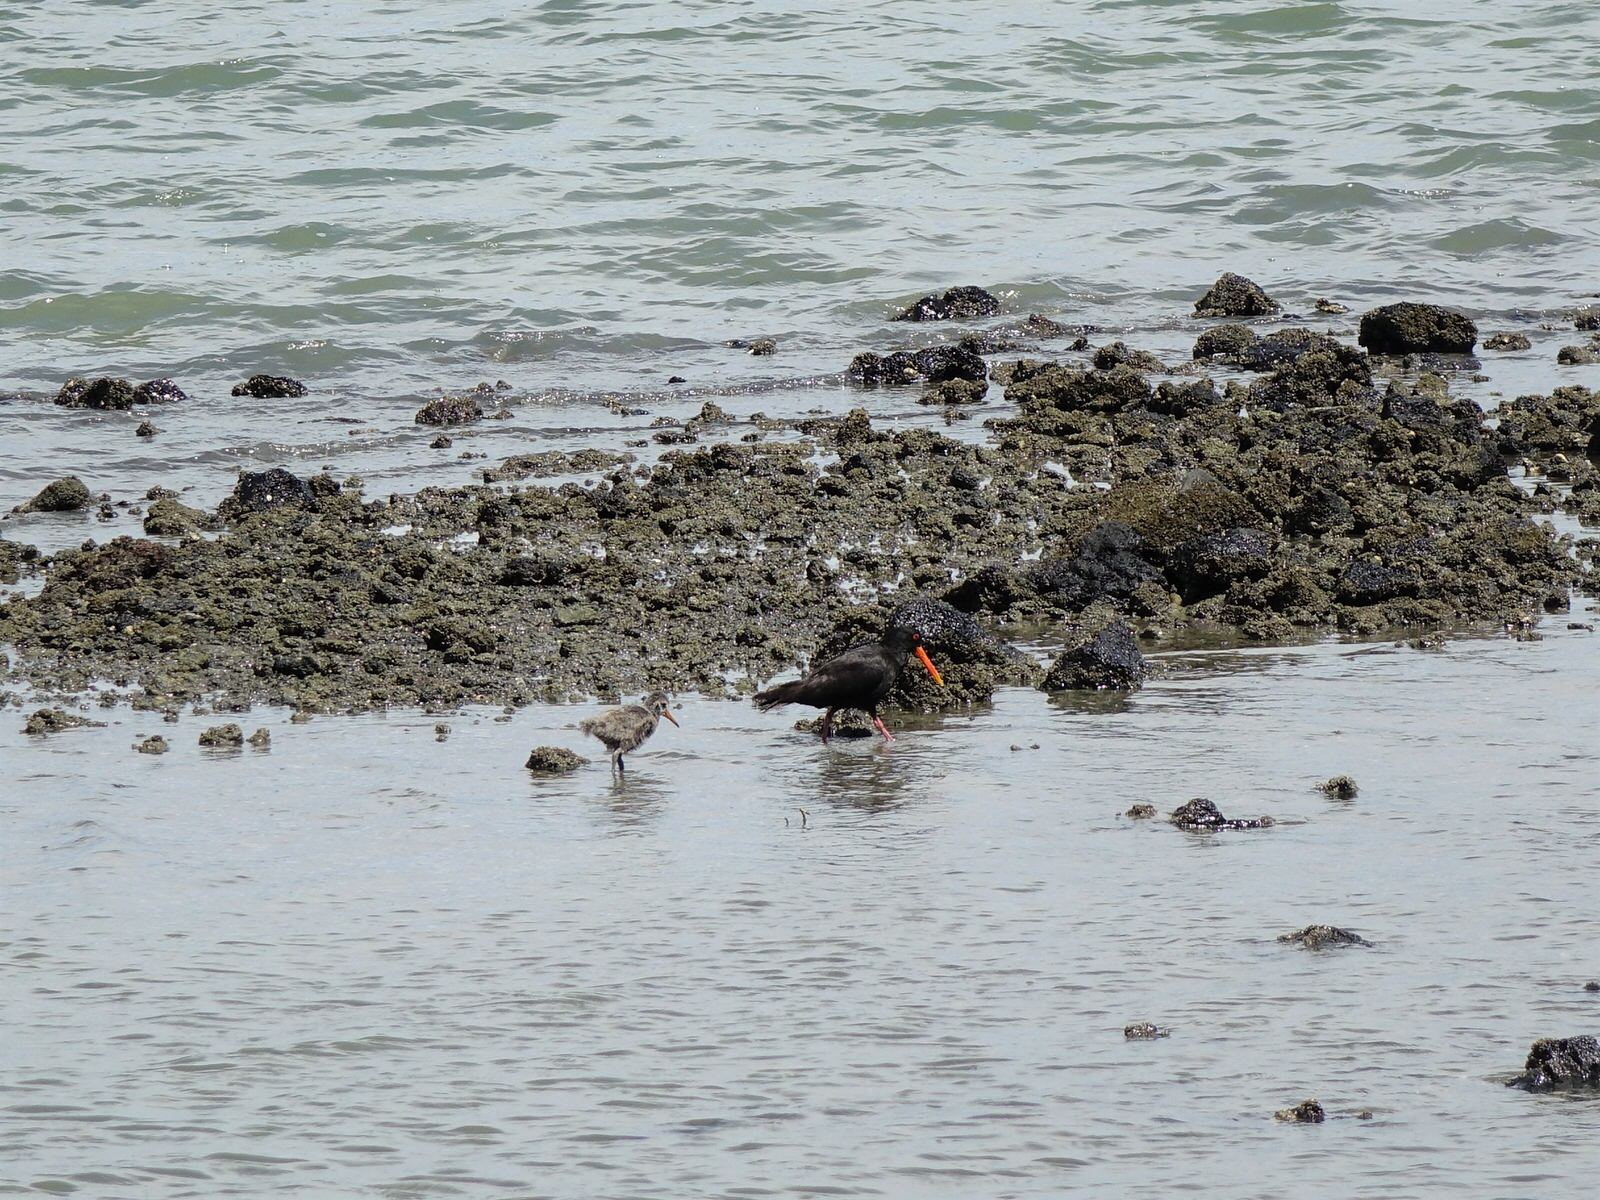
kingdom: Animalia
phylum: Chordata
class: Aves
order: Charadriiformes
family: Haematopodidae
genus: Haematopus
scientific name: Haematopus unicolor
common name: Variable oystercatcher
